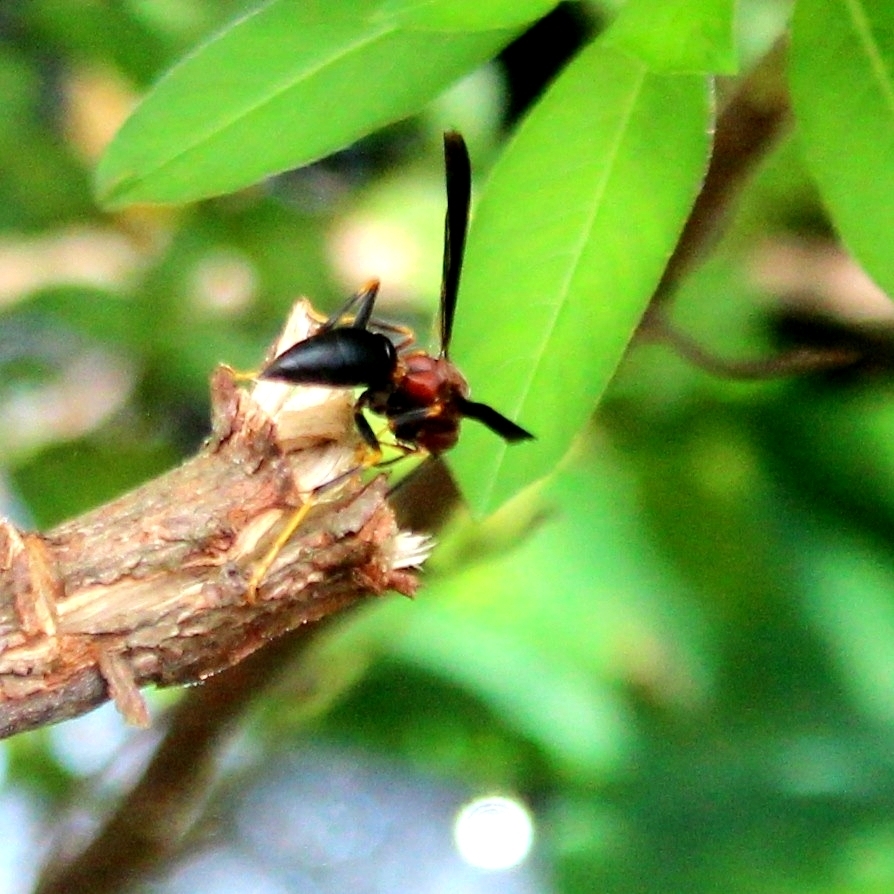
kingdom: Animalia
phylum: Arthropoda
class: Insecta
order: Hymenoptera
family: Eumenidae
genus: Polistes
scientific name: Polistes metricus
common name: Metric paper wasp
